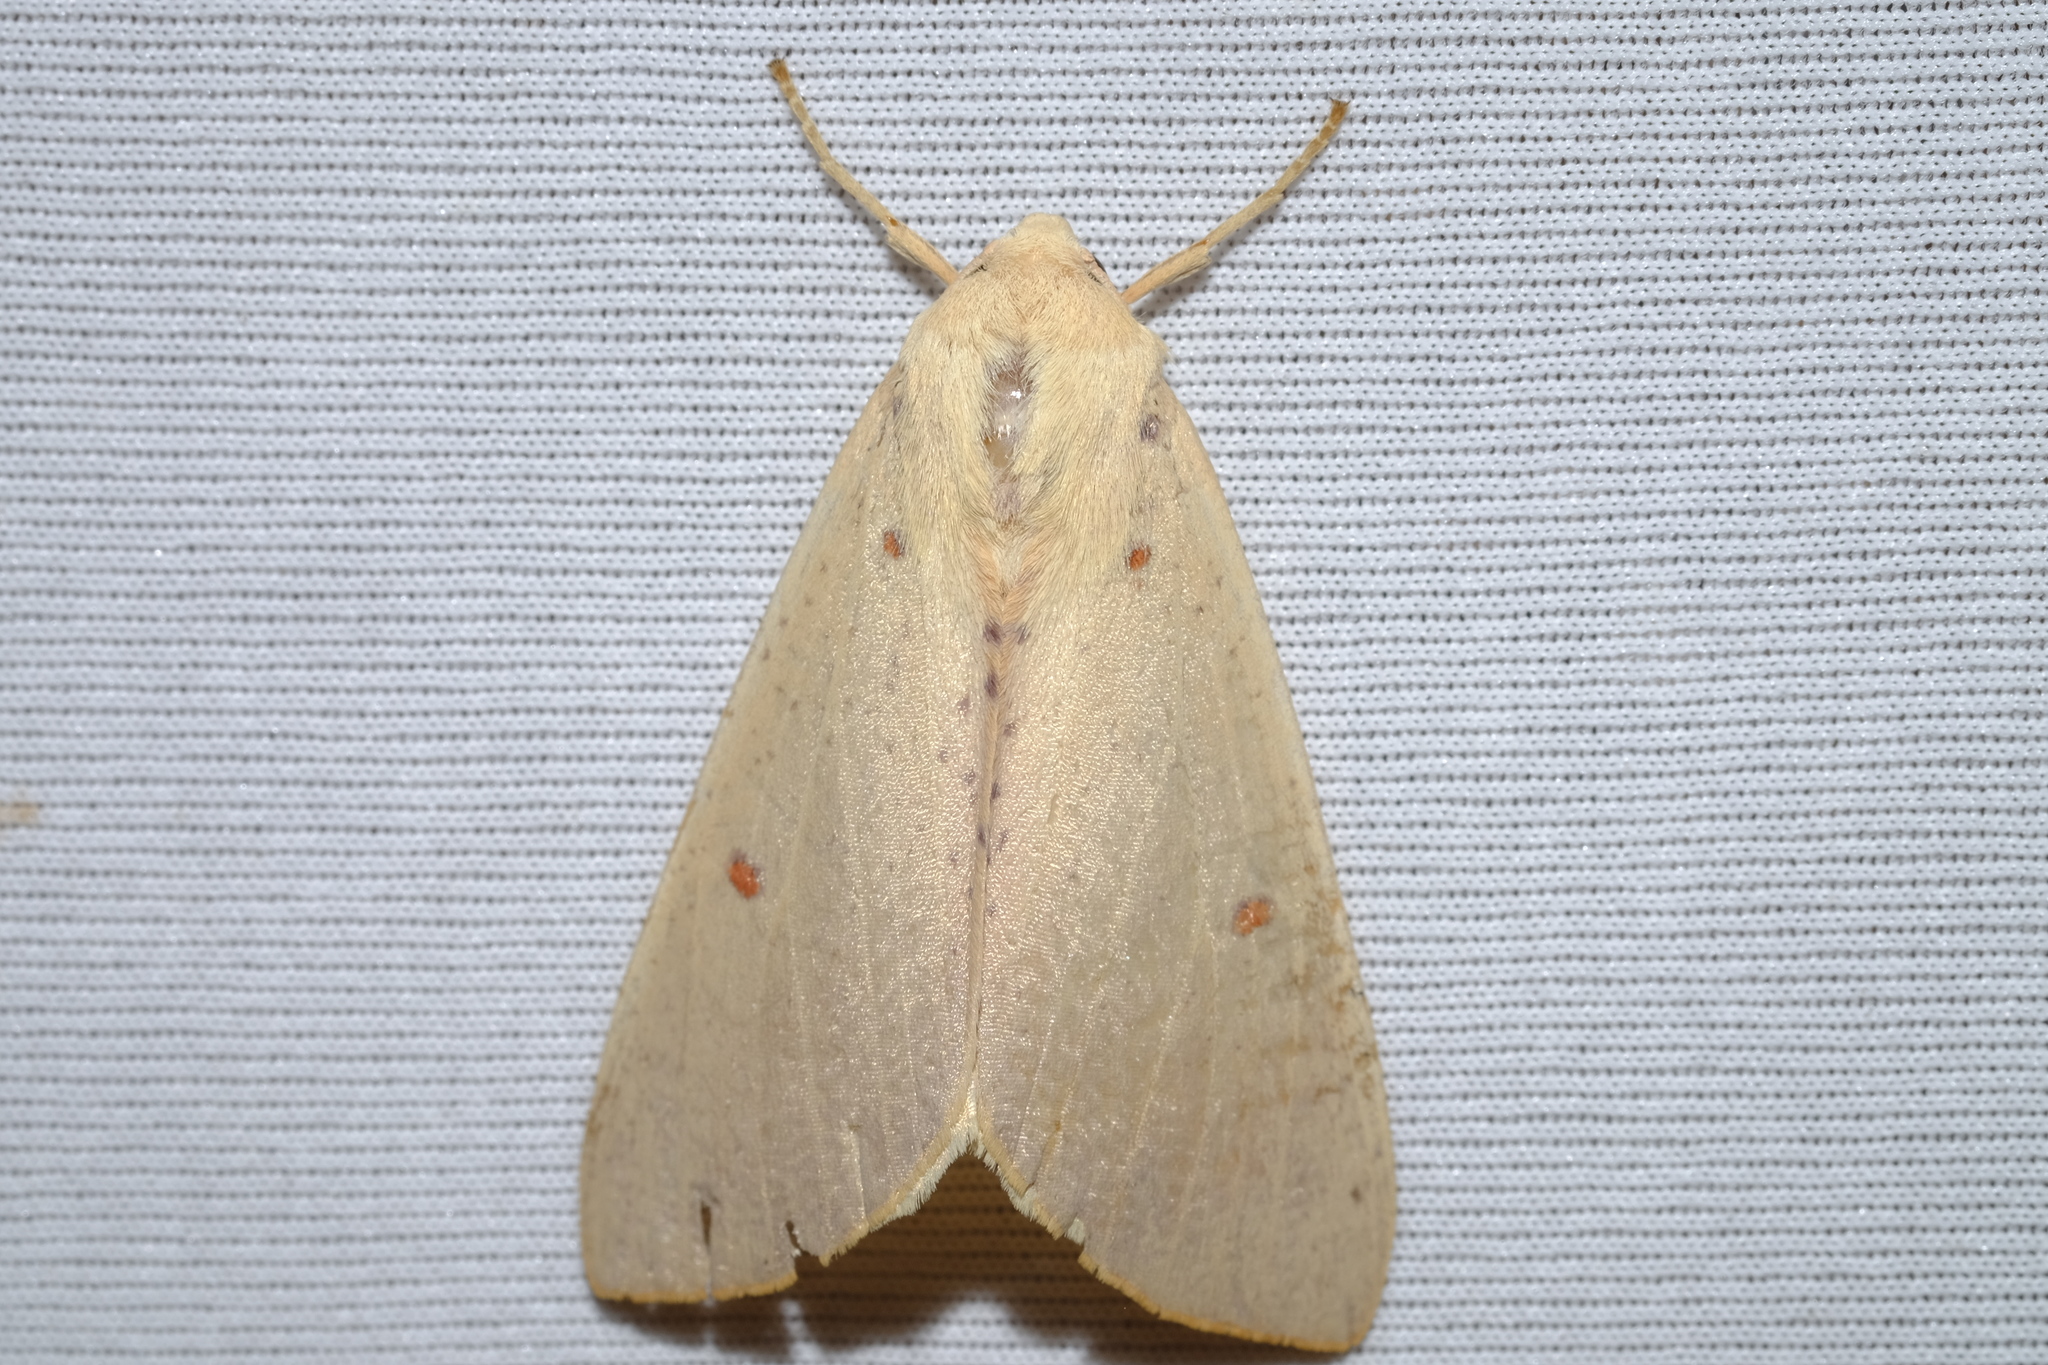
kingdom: Animalia
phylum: Arthropoda
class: Insecta
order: Lepidoptera
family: Geometridae
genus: Plesanemma
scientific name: Plesanemma fucata
